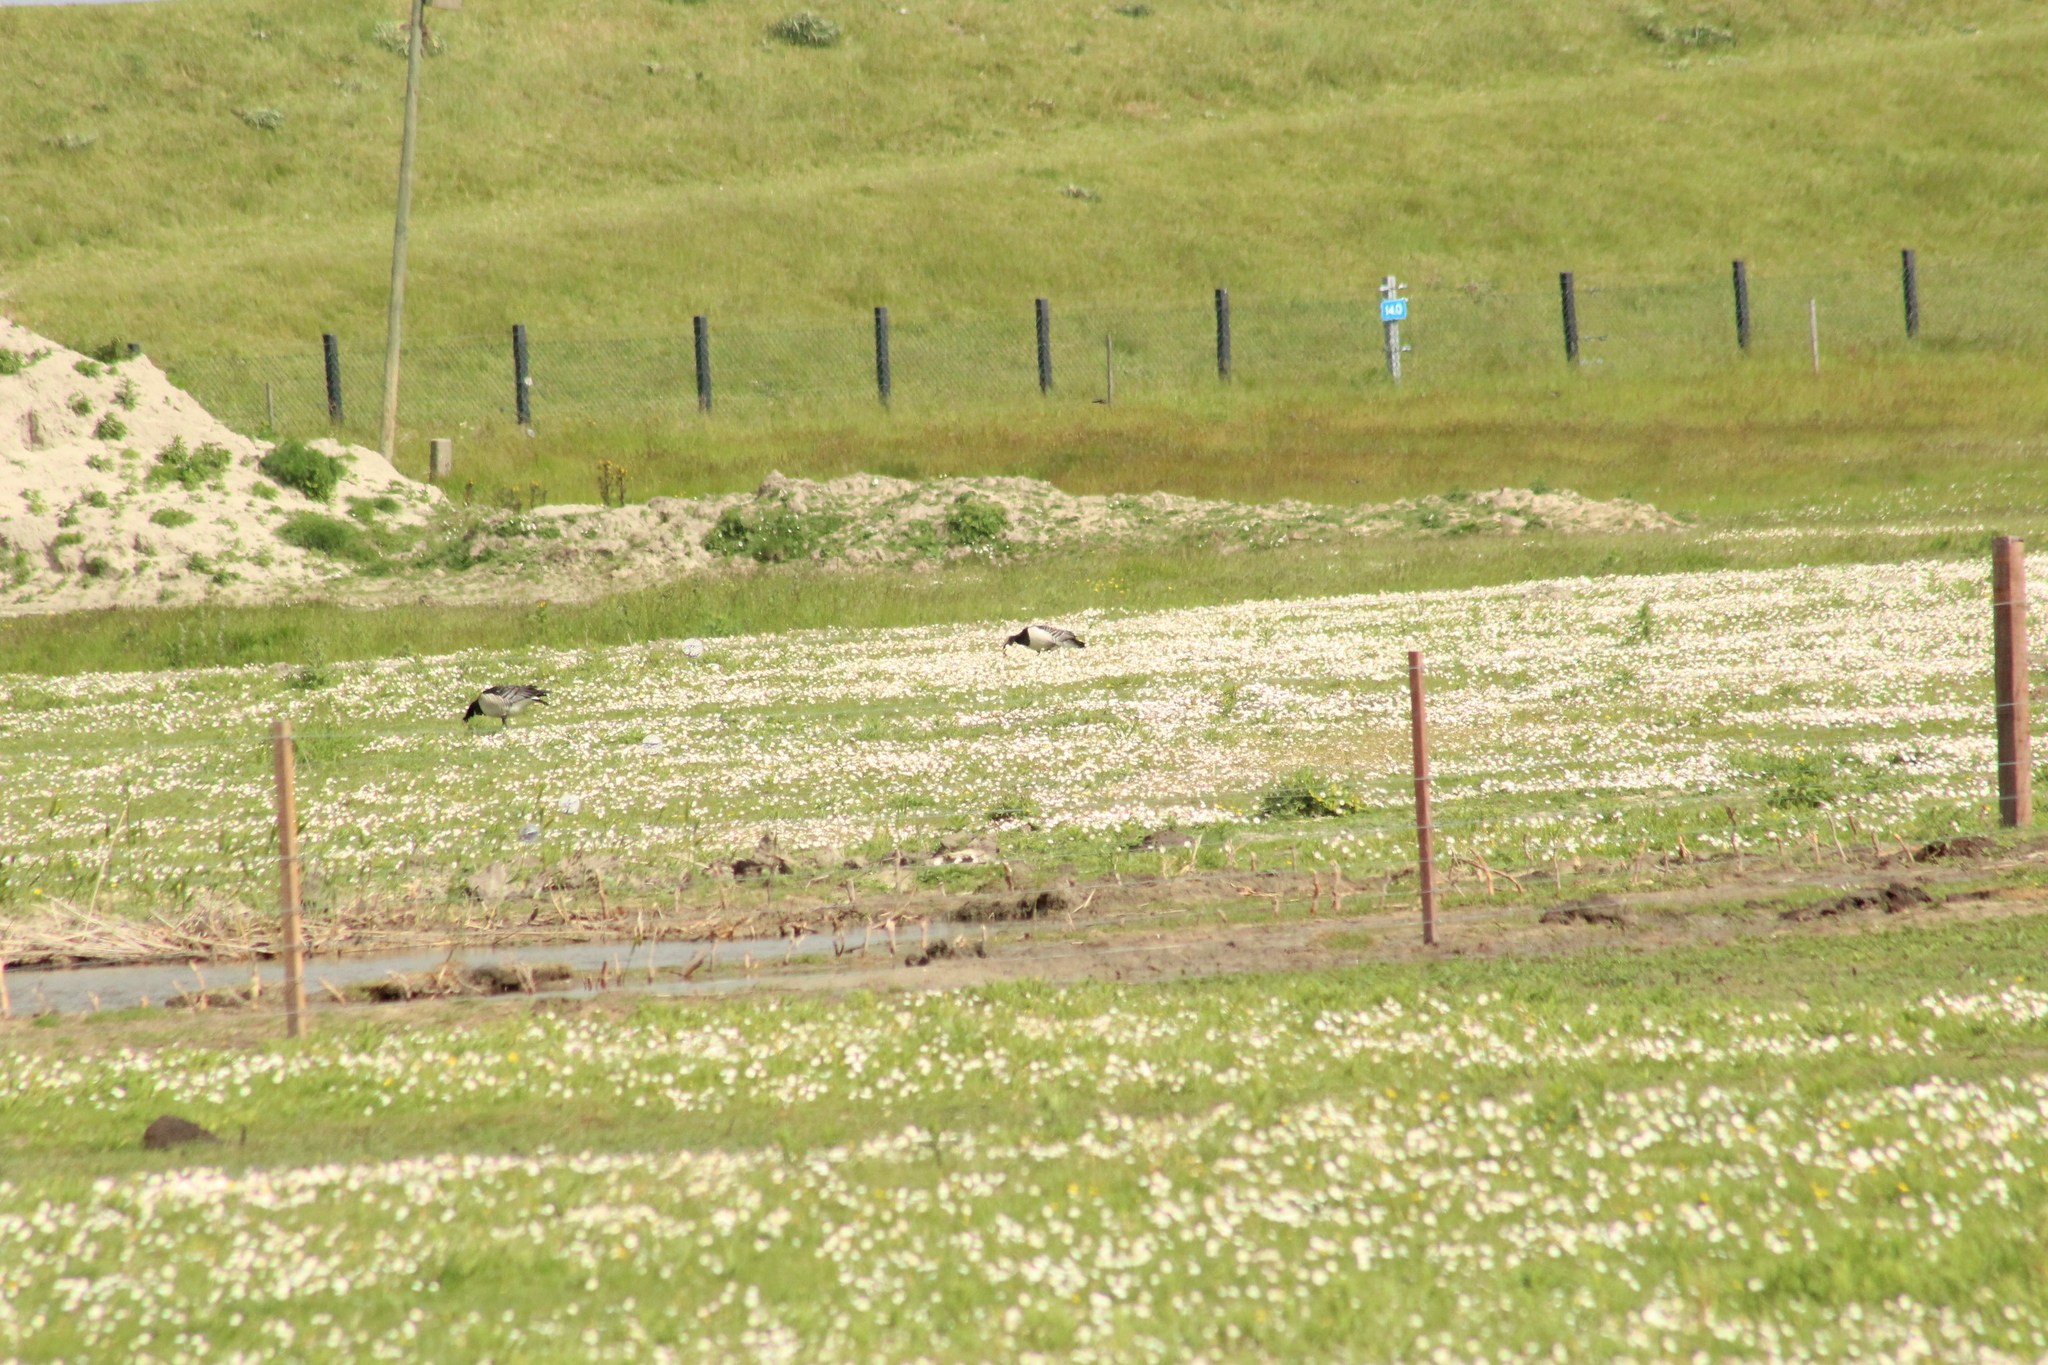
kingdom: Animalia
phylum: Chordata
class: Aves
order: Anseriformes
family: Anatidae
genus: Branta
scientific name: Branta leucopsis
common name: Barnacle goose
